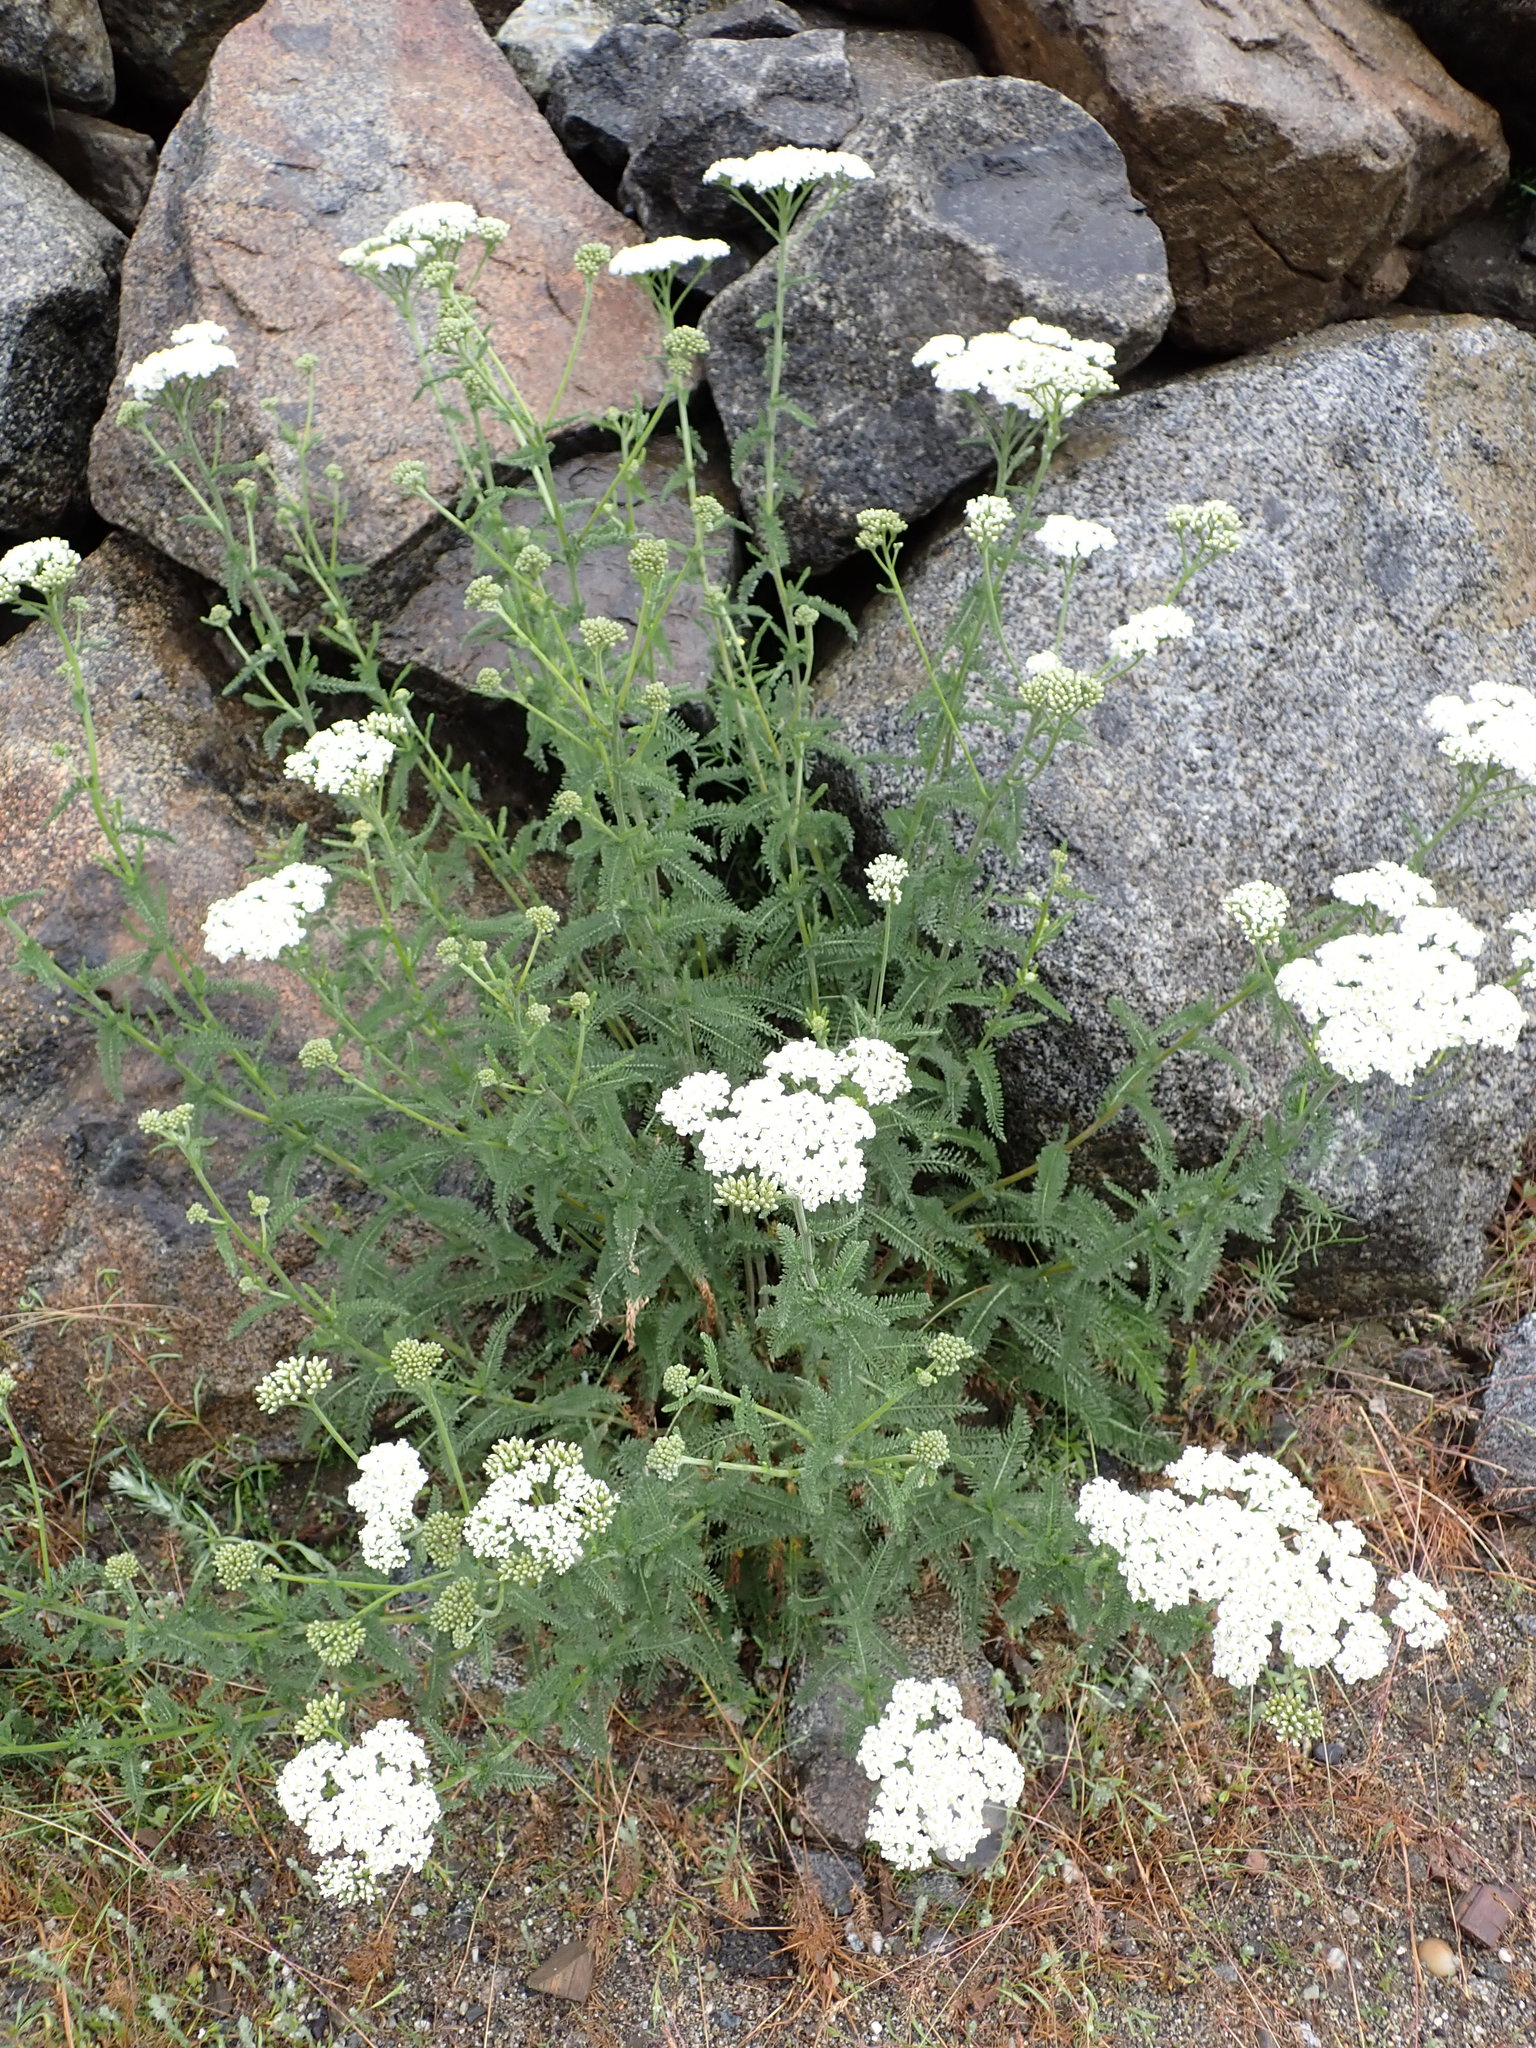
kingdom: Plantae
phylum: Tracheophyta
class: Magnoliopsida
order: Asterales
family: Asteraceae
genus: Achillea
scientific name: Achillea millefolium
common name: Yarrow
